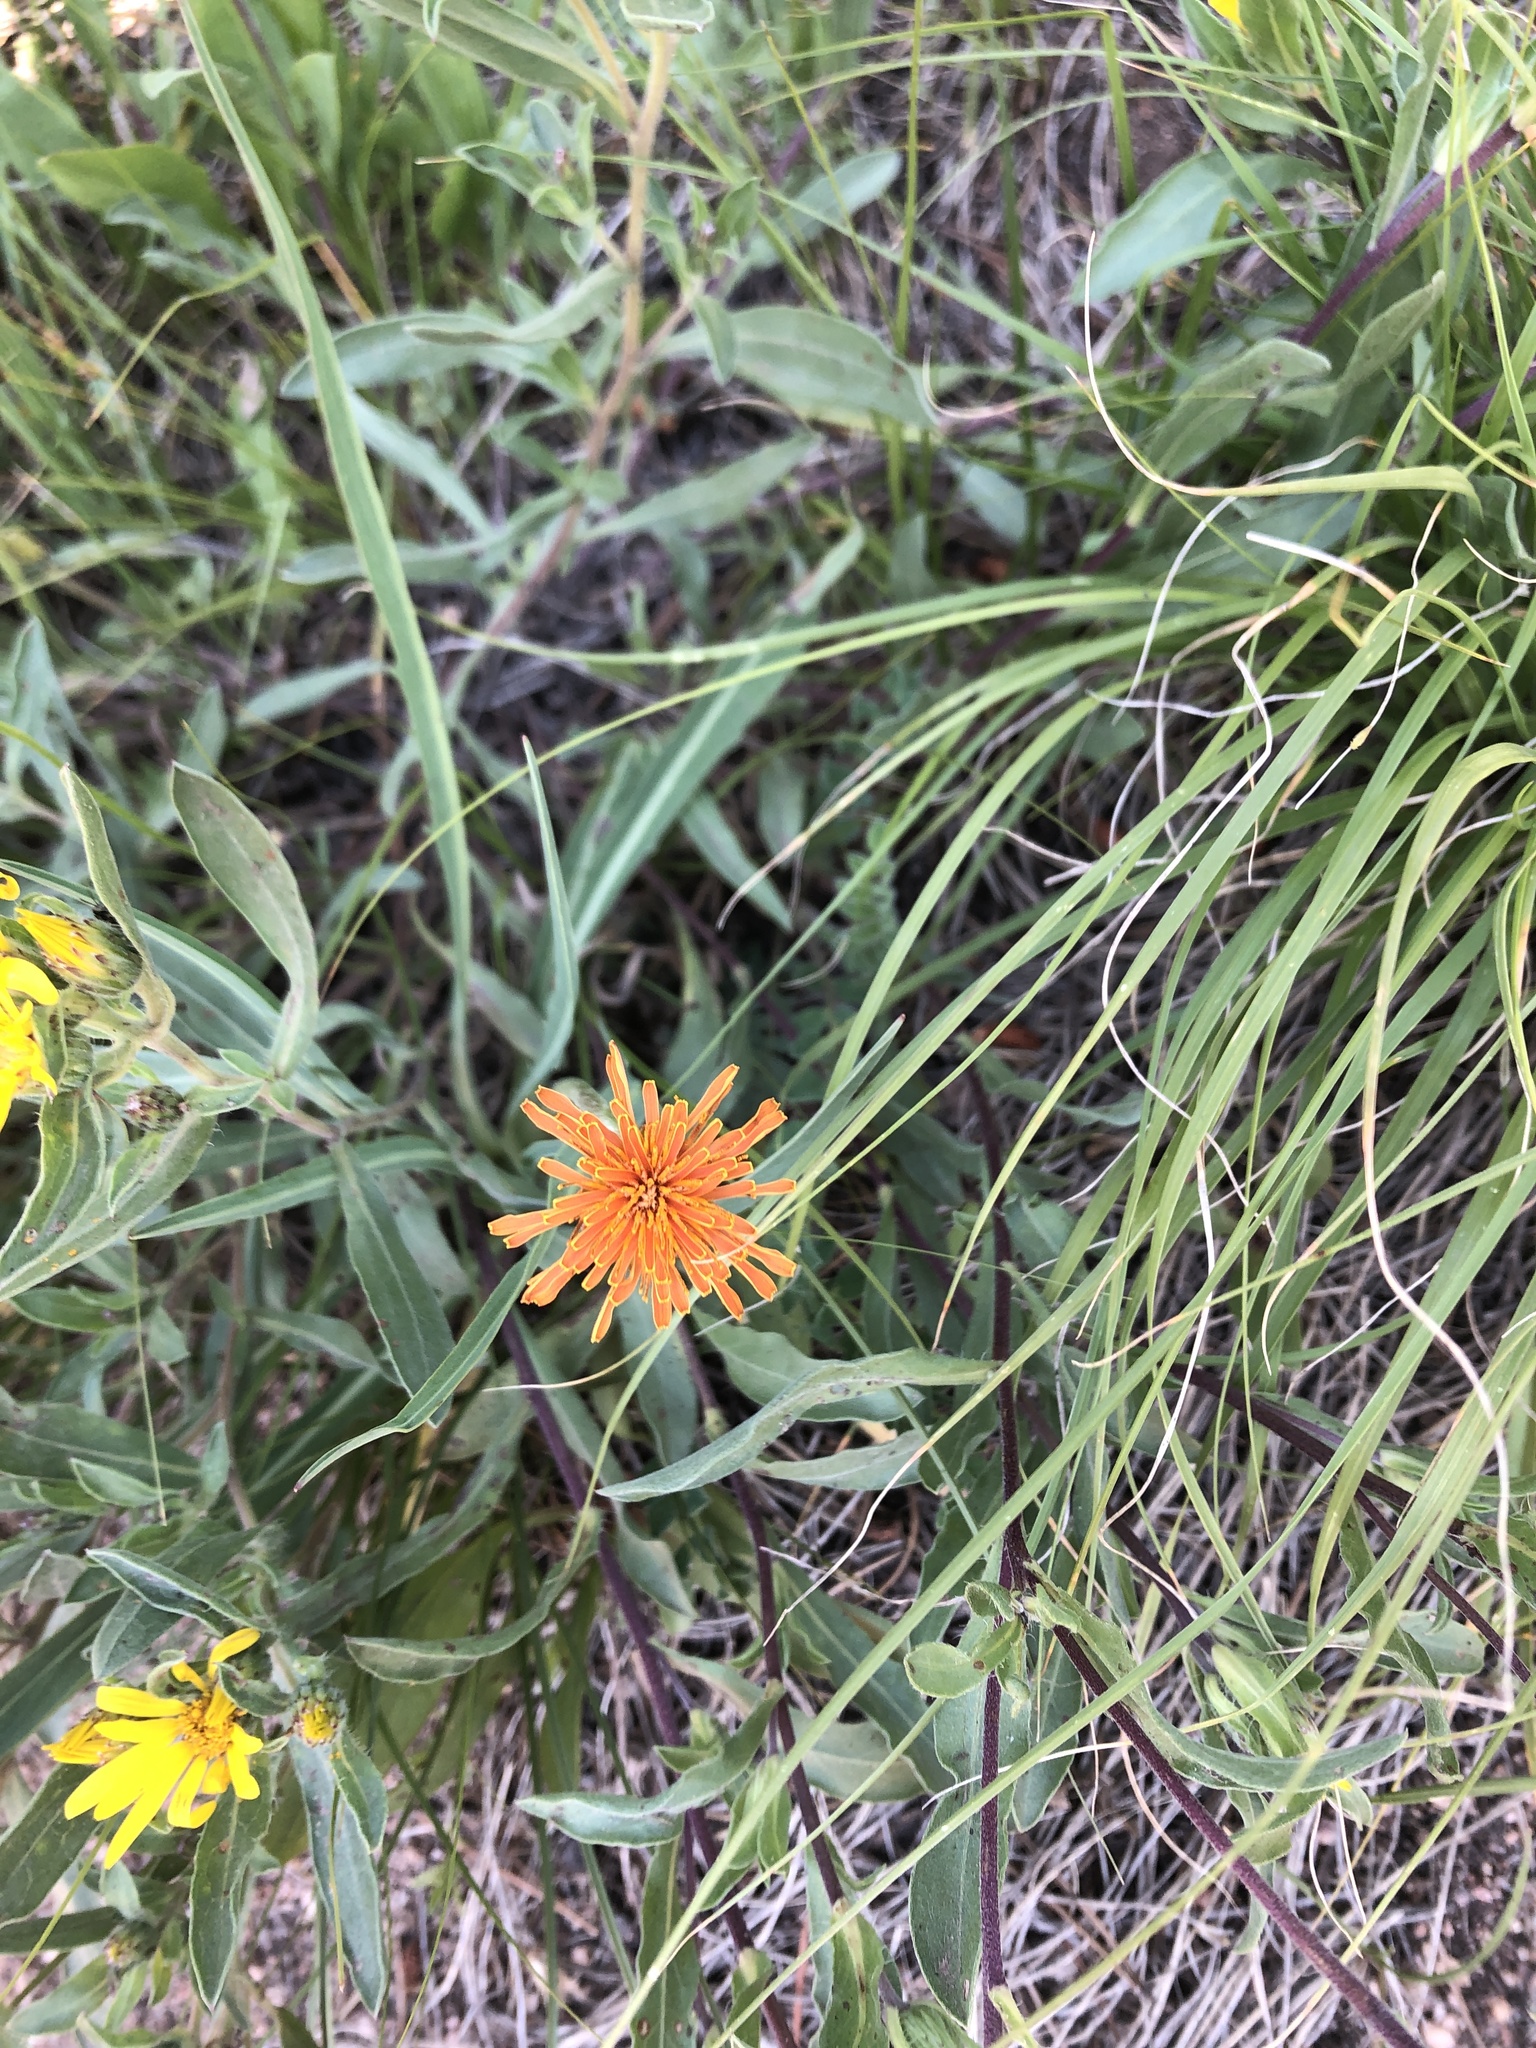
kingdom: Plantae
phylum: Tracheophyta
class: Magnoliopsida
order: Asterales
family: Asteraceae
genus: Agoseris
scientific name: Agoseris aurantiaca
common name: Mountain agoseris
